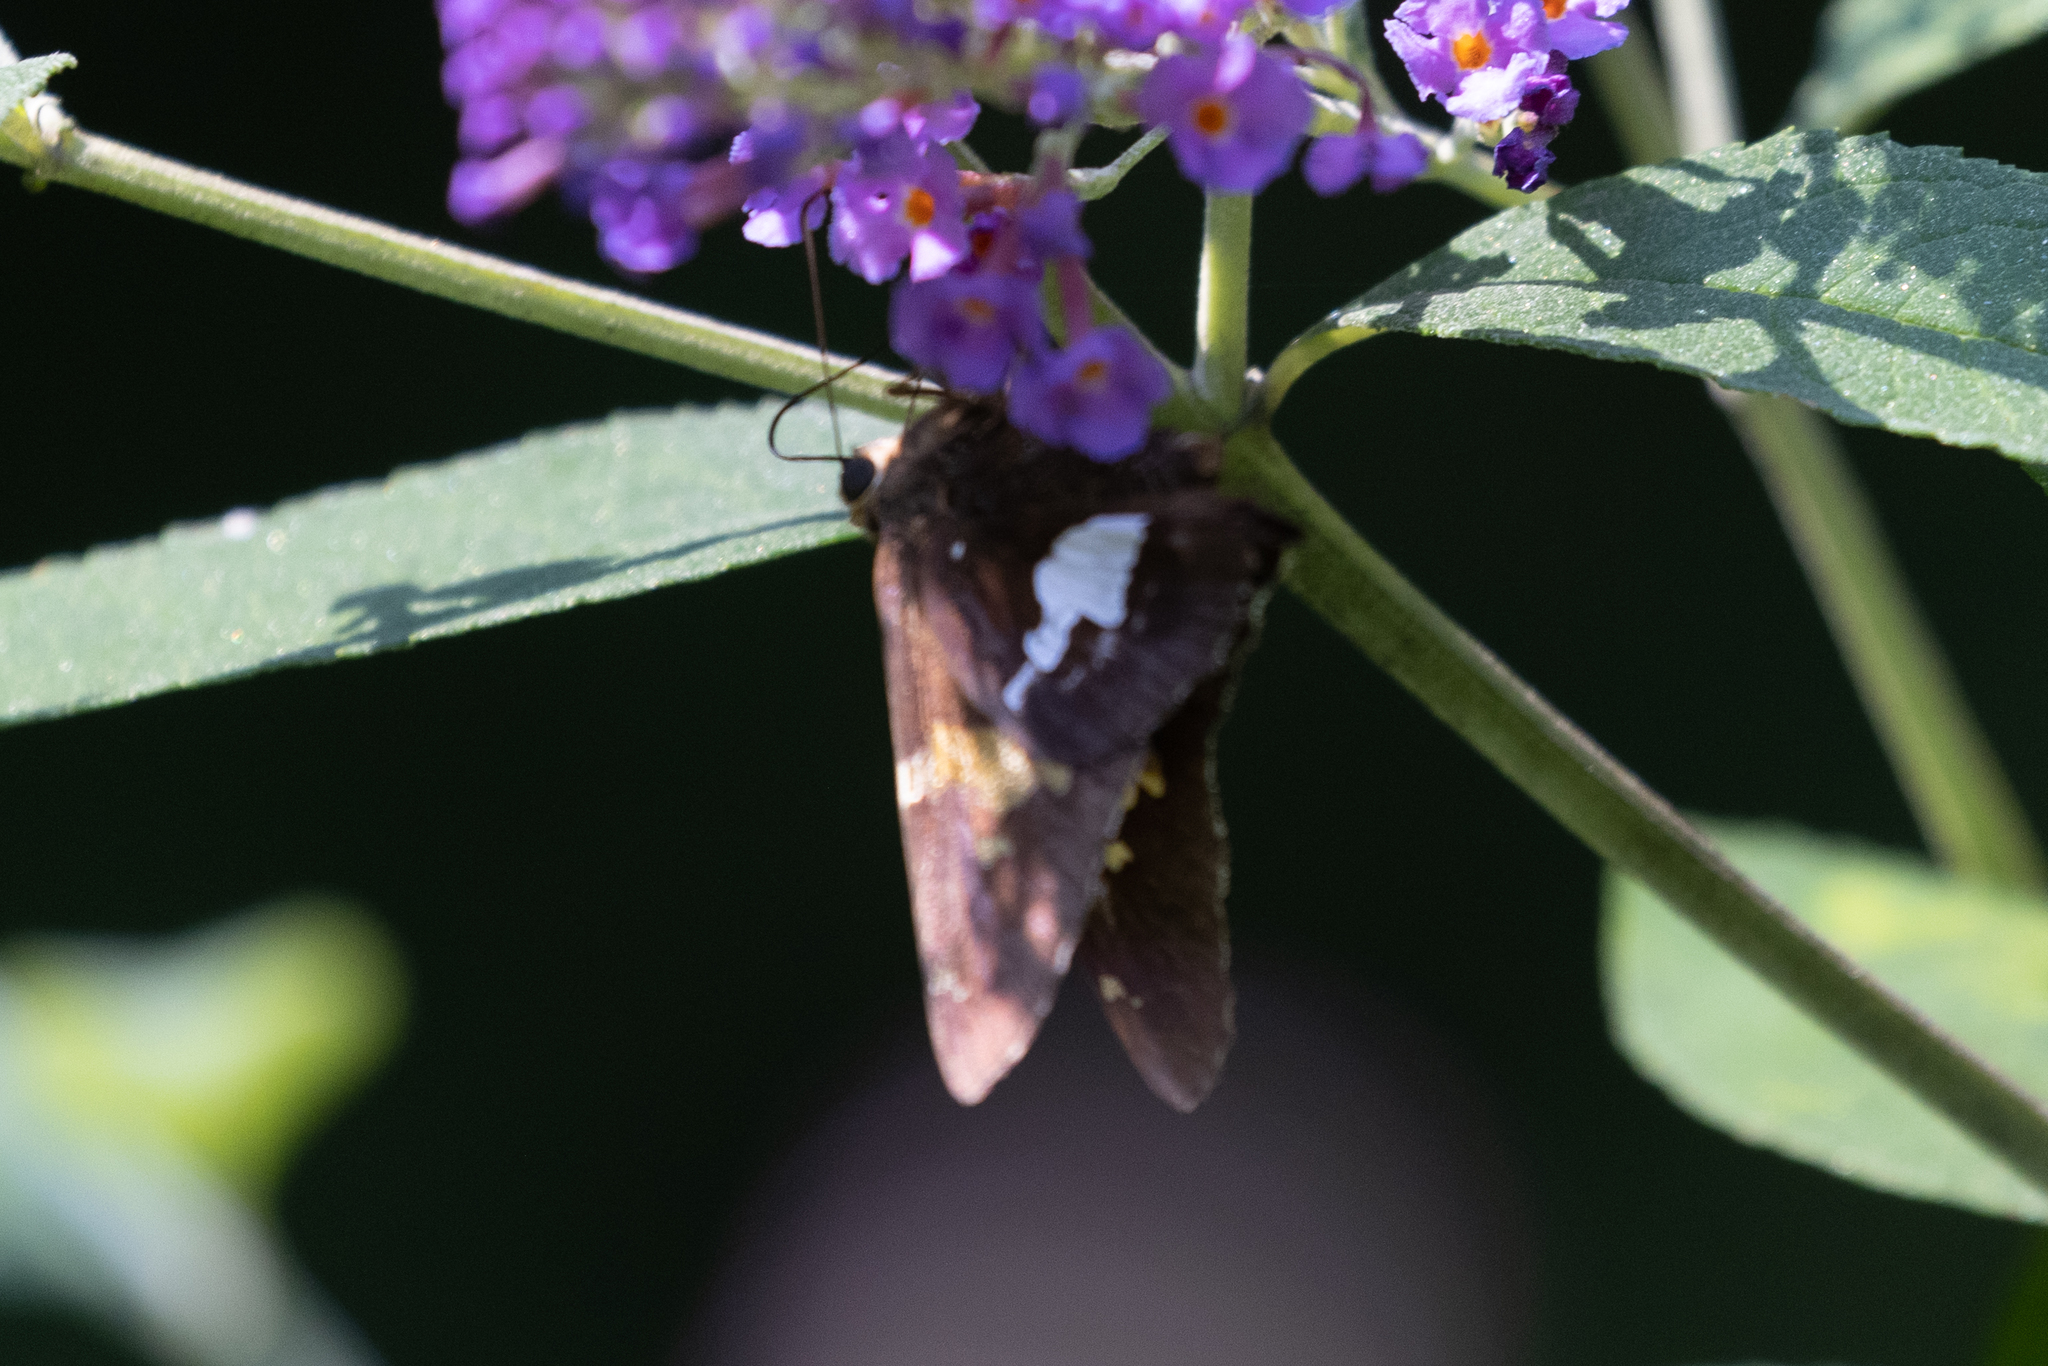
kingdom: Animalia
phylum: Arthropoda
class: Insecta
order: Lepidoptera
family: Hesperiidae
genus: Epargyreus
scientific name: Epargyreus clarus
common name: Silver-spotted skipper
